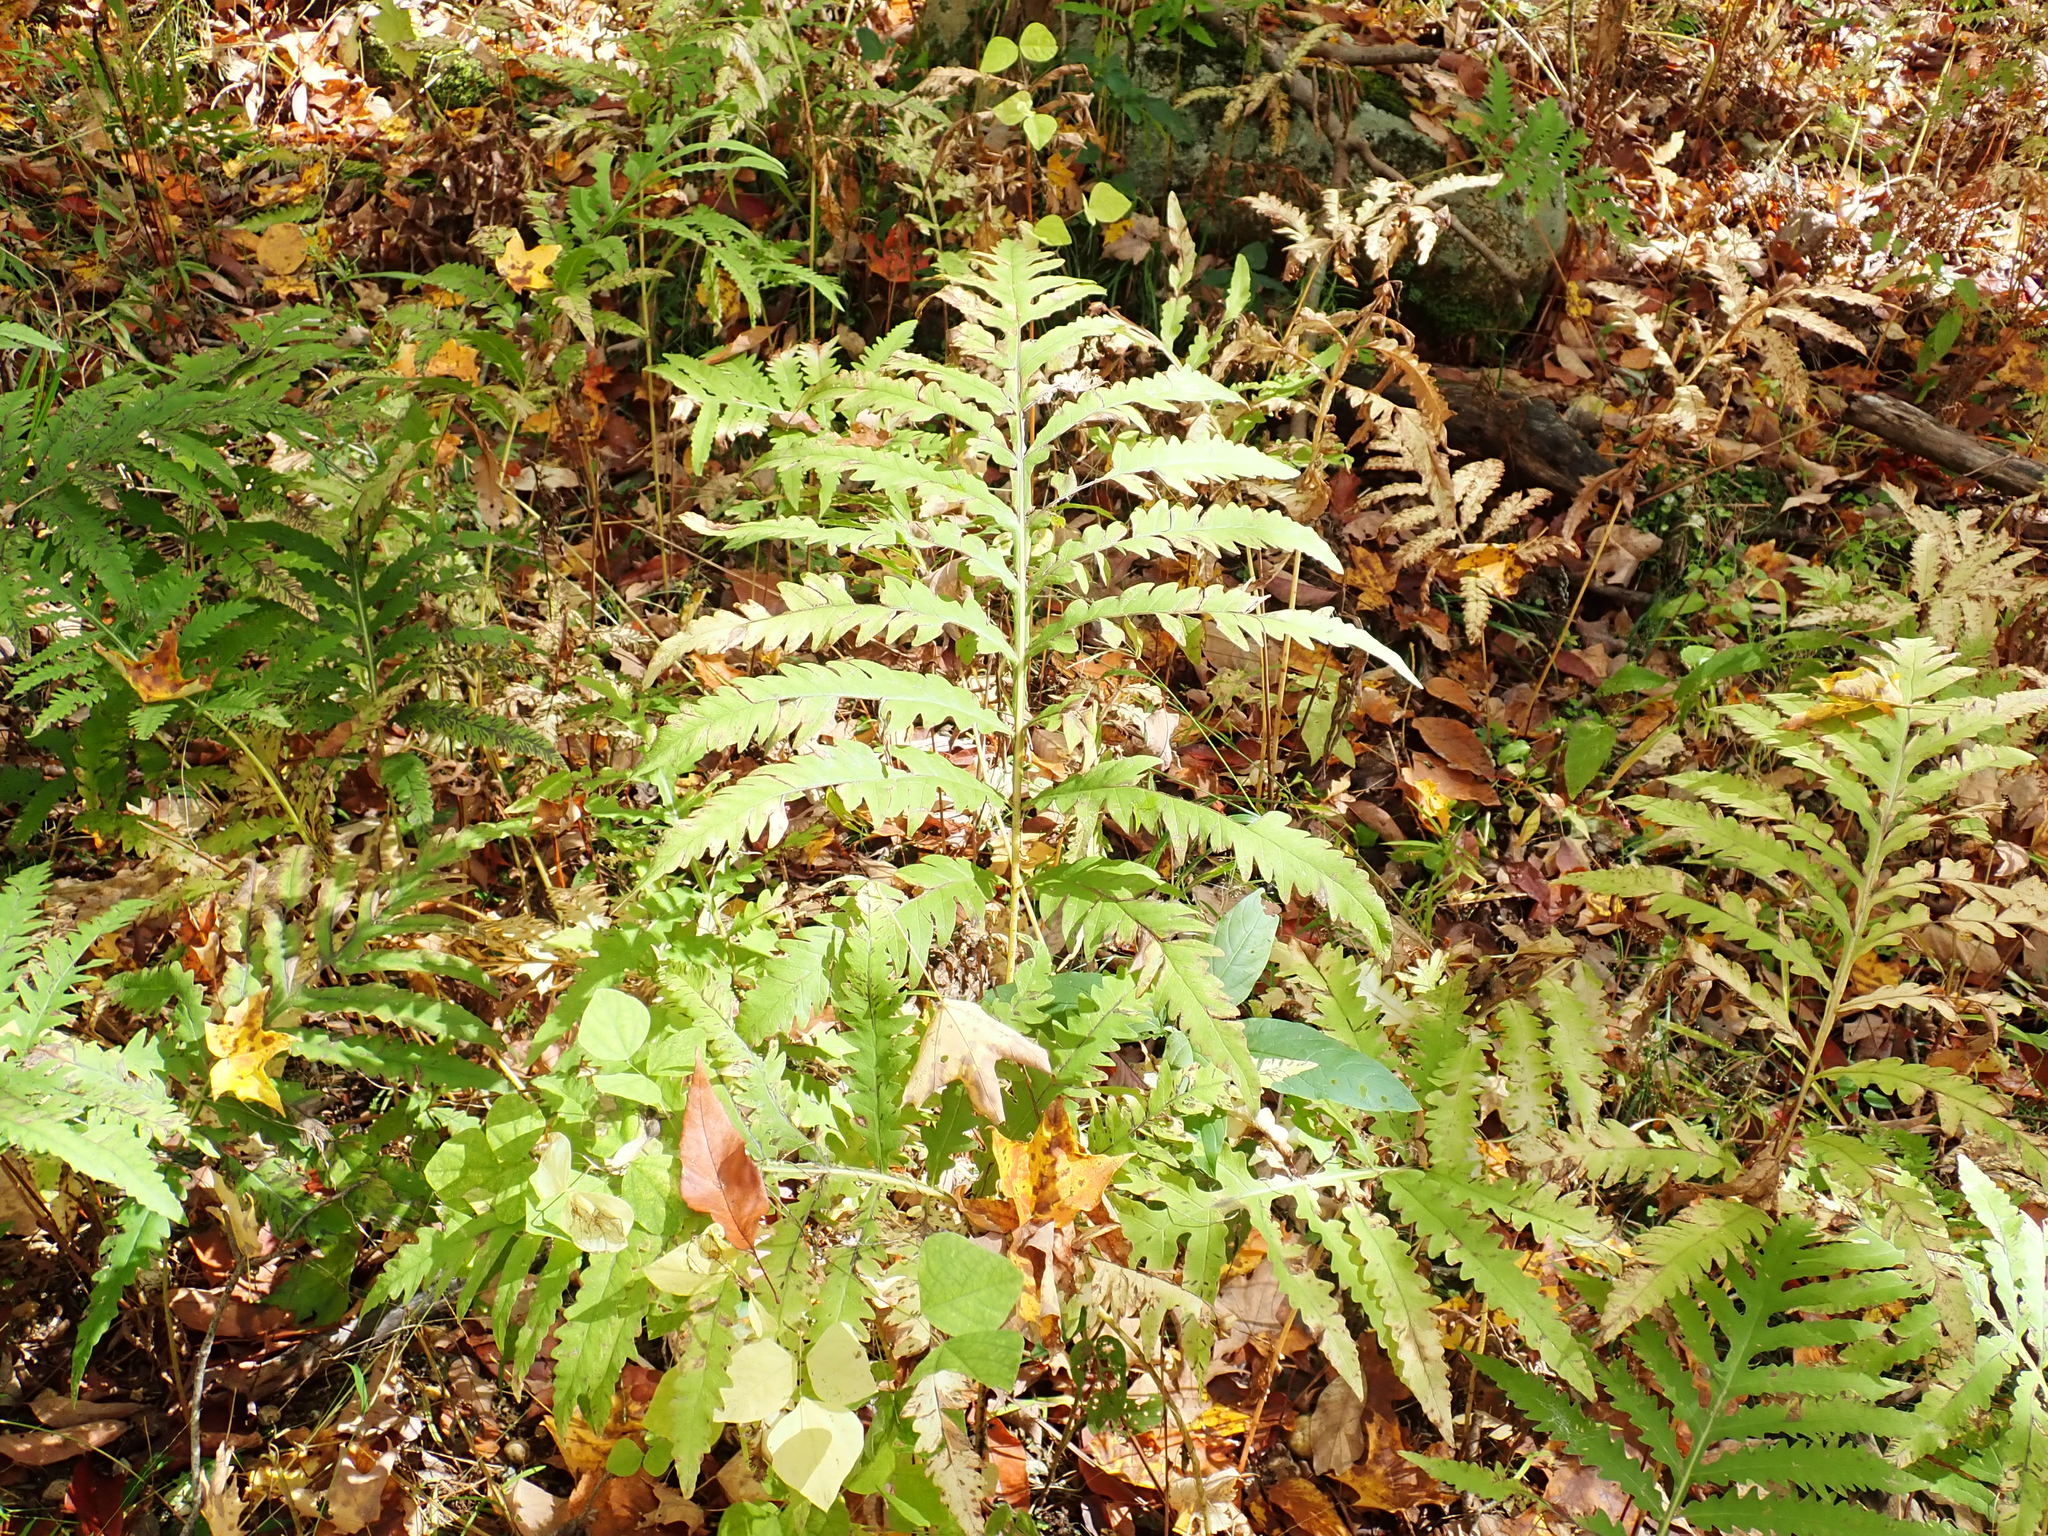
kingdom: Plantae
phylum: Tracheophyta
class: Polypodiopsida
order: Polypodiales
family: Onocleaceae
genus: Onoclea
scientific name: Onoclea sensibilis
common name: Sensitive fern
